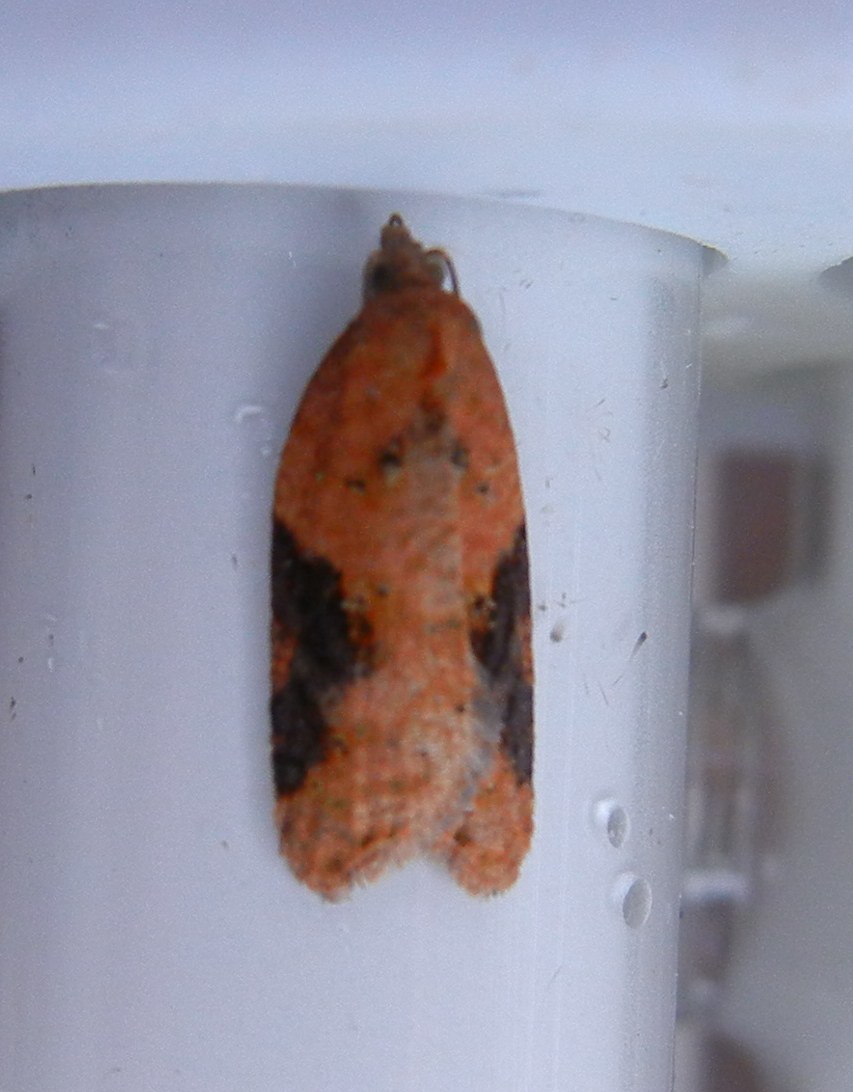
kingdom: Animalia
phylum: Arthropoda
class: Insecta
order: Lepidoptera
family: Tortricidae
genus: Acleris
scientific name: Acleris laterana
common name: Dark-triangle button
